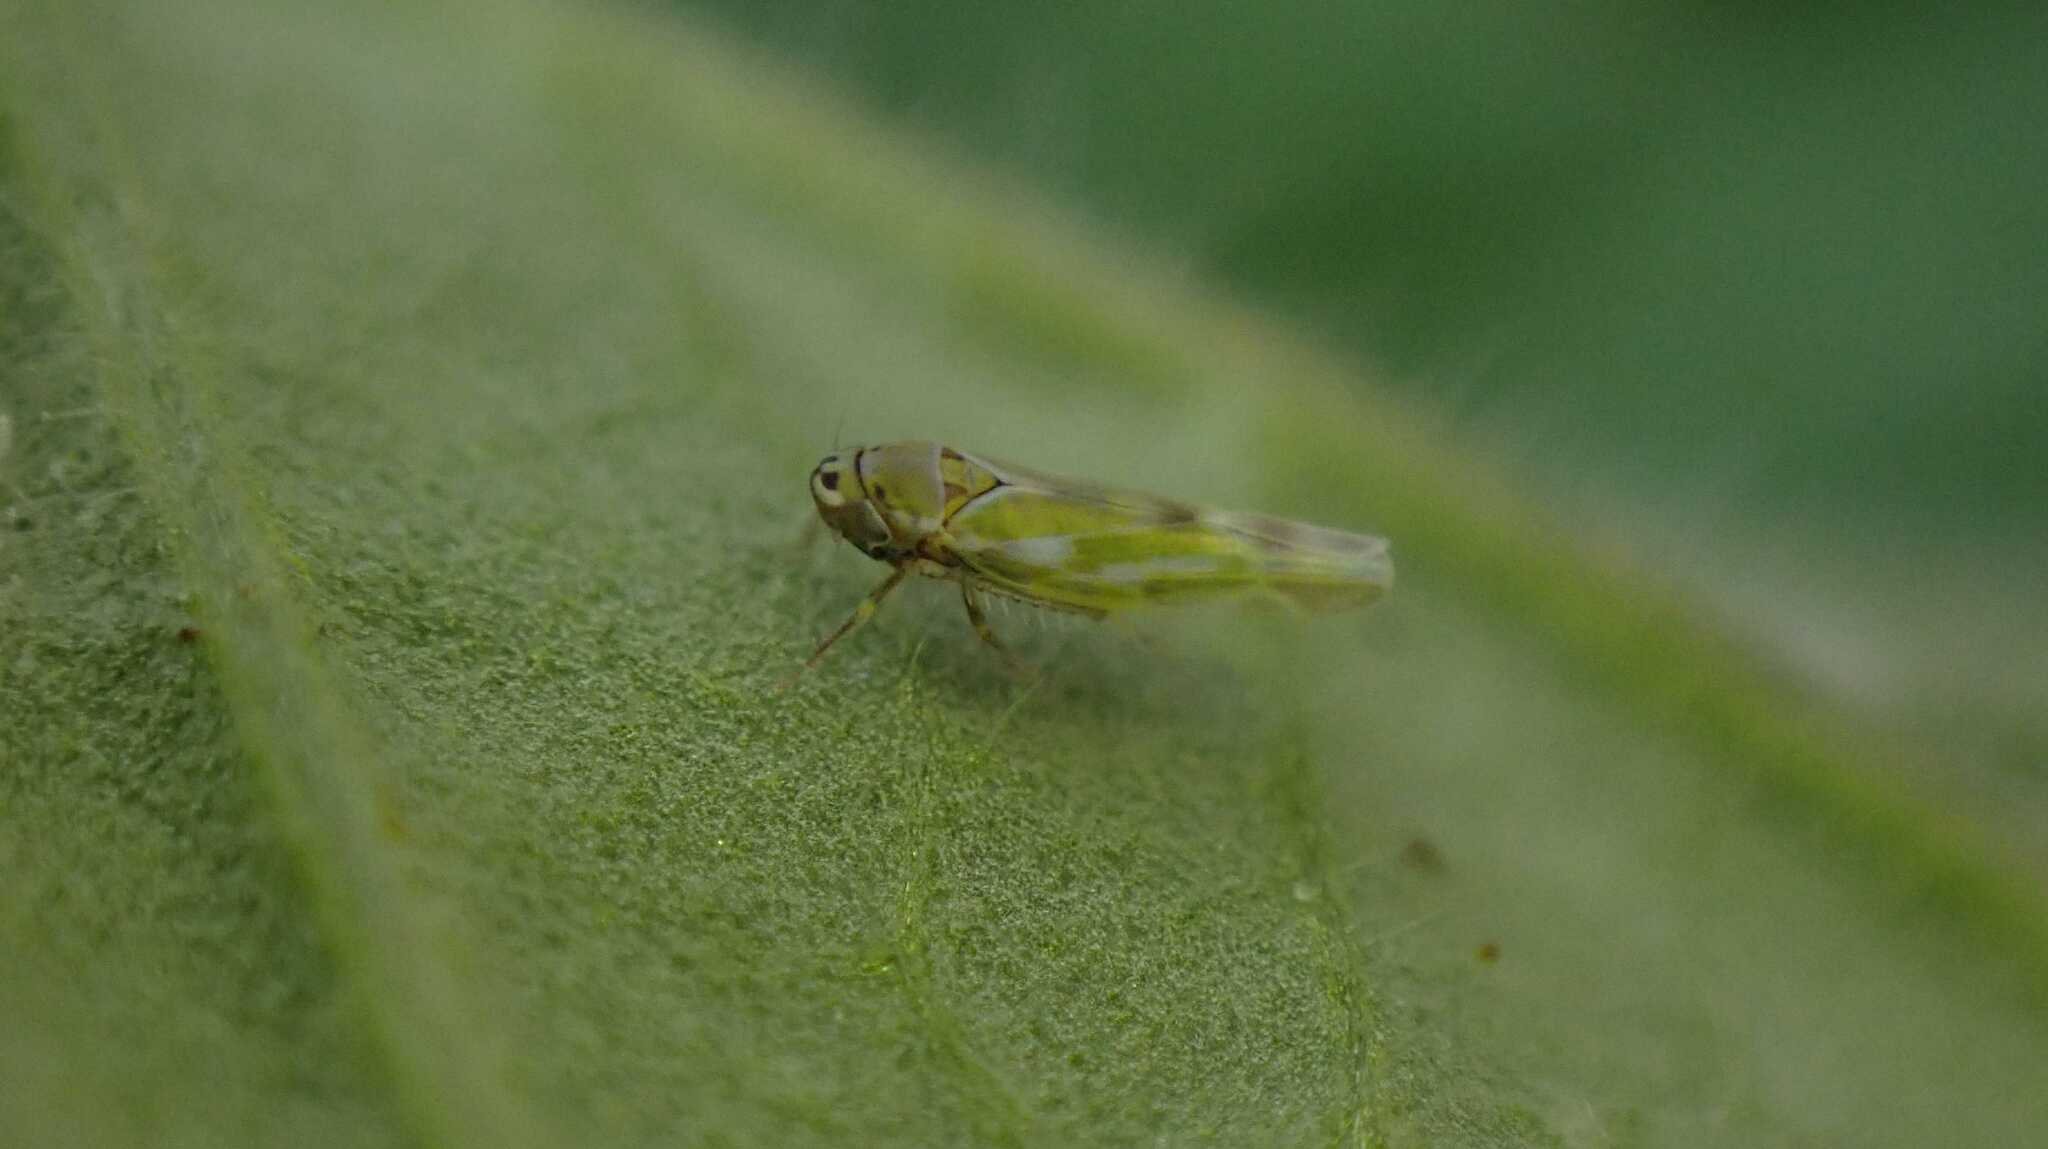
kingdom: Animalia
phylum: Arthropoda
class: Insecta
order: Hemiptera
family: Cicadellidae
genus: Frutioidia
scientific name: Frutioidia bisignata
